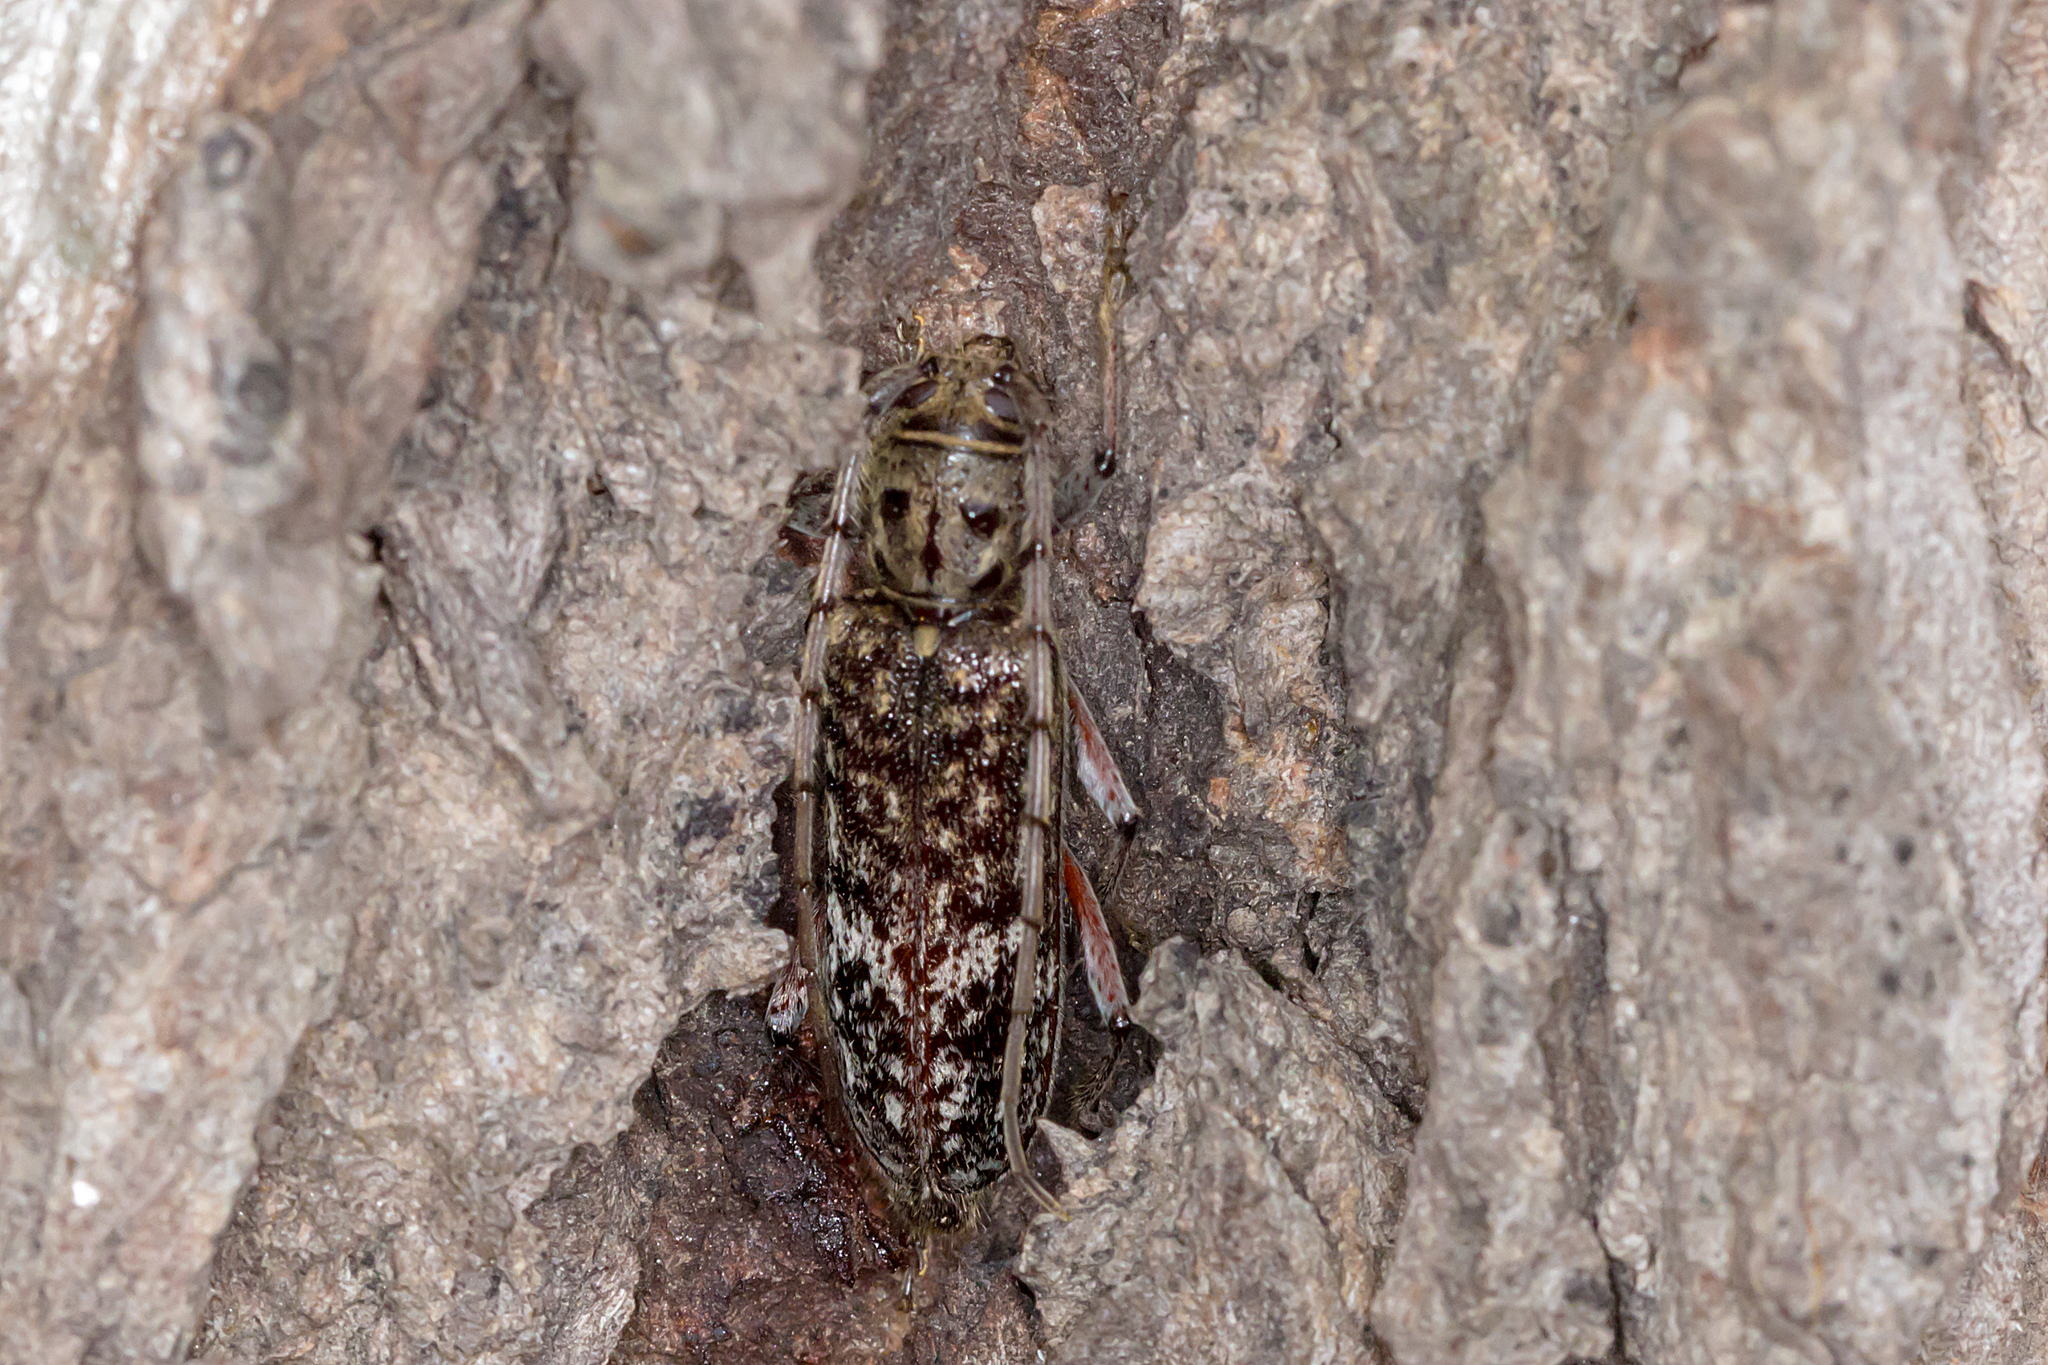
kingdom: Animalia
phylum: Arthropoda
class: Insecta
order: Coleoptera
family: Cerambycidae
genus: Phacodes
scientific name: Phacodes obscurus
